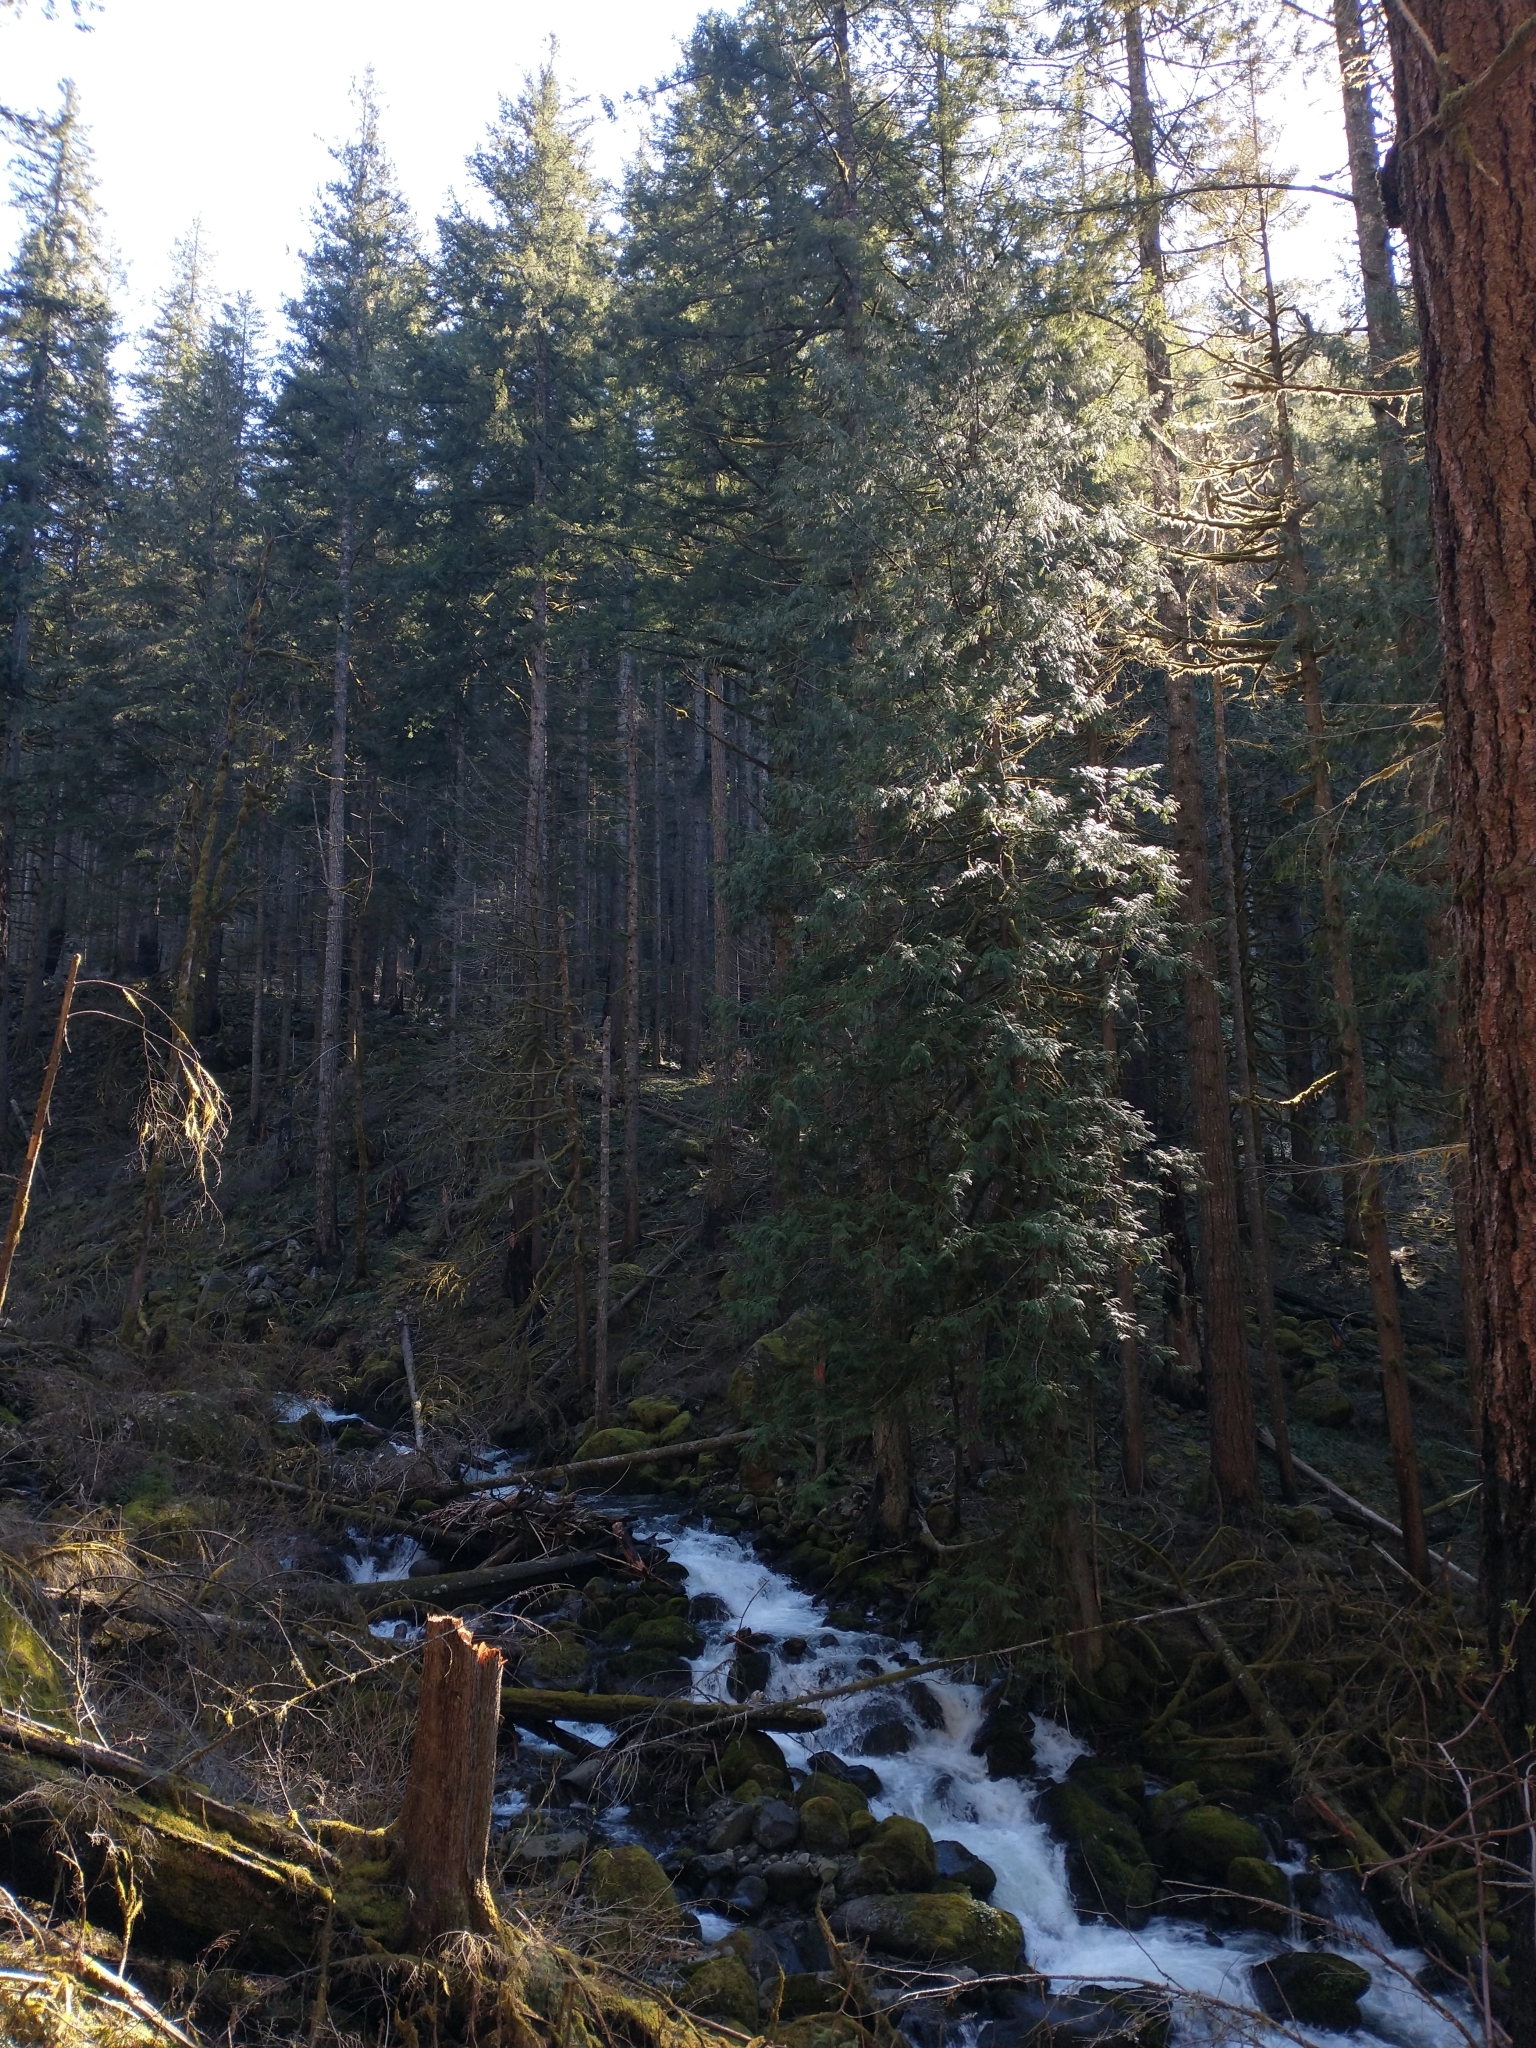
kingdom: Plantae
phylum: Tracheophyta
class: Pinopsida
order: Pinales
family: Cupressaceae
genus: Thuja
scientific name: Thuja plicata
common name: Western red-cedar
